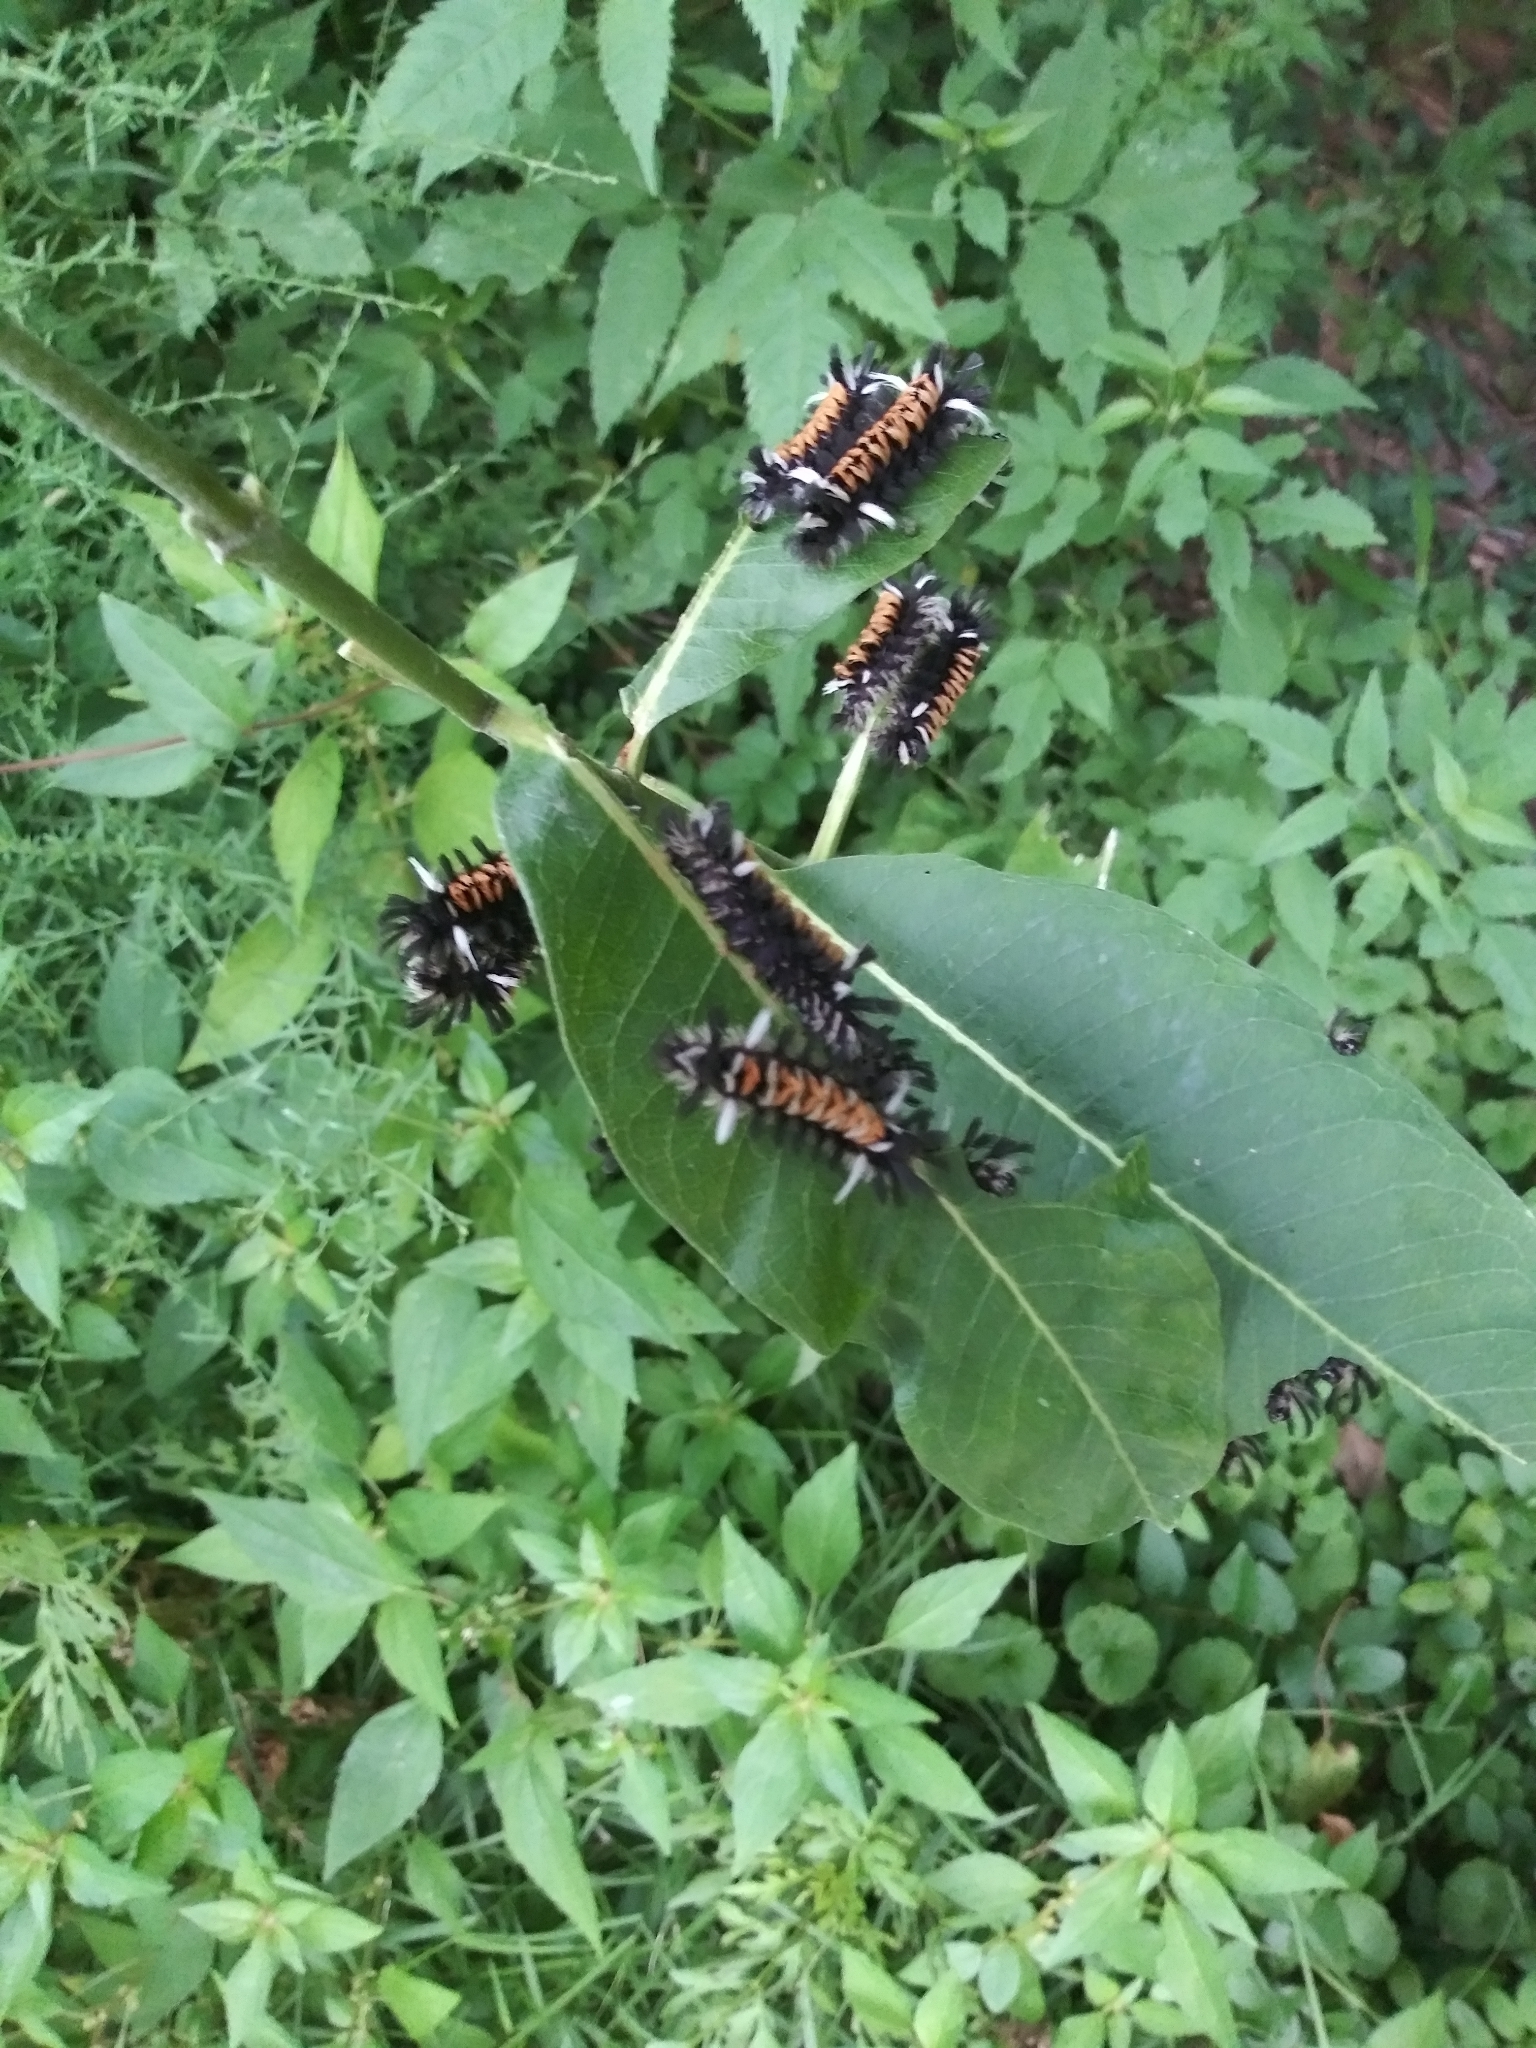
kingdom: Animalia
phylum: Arthropoda
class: Insecta
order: Lepidoptera
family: Erebidae
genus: Euchaetes
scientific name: Euchaetes egle
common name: Milkweed tussock moth
